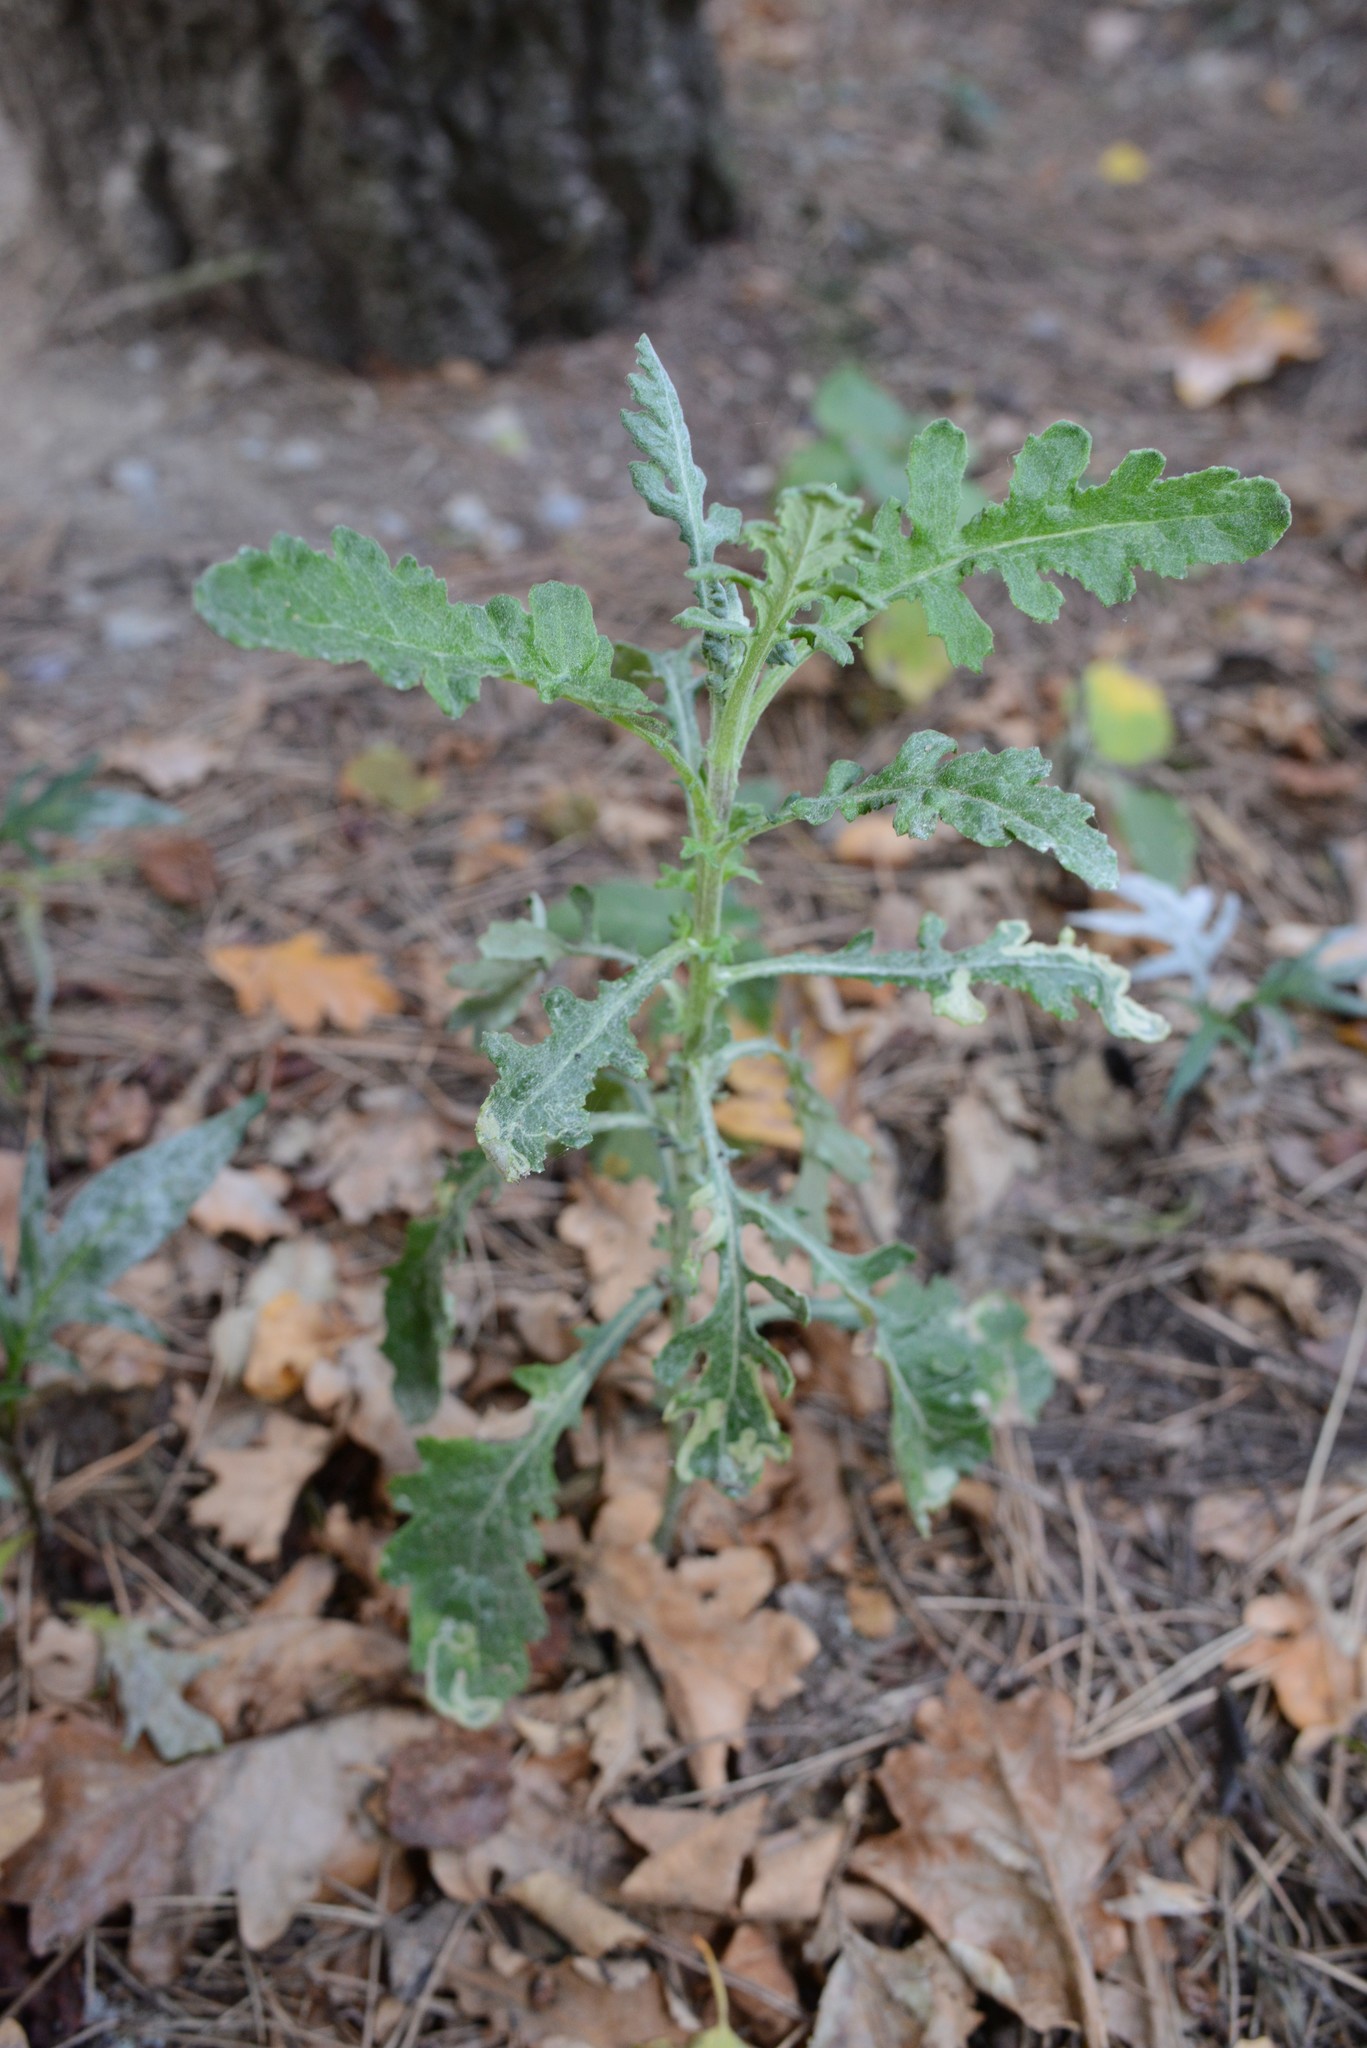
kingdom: Plantae
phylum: Tracheophyta
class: Magnoliopsida
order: Asterales
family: Asteraceae
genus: Senecio
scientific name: Senecio glomeratus
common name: Cutleaf burnweed
